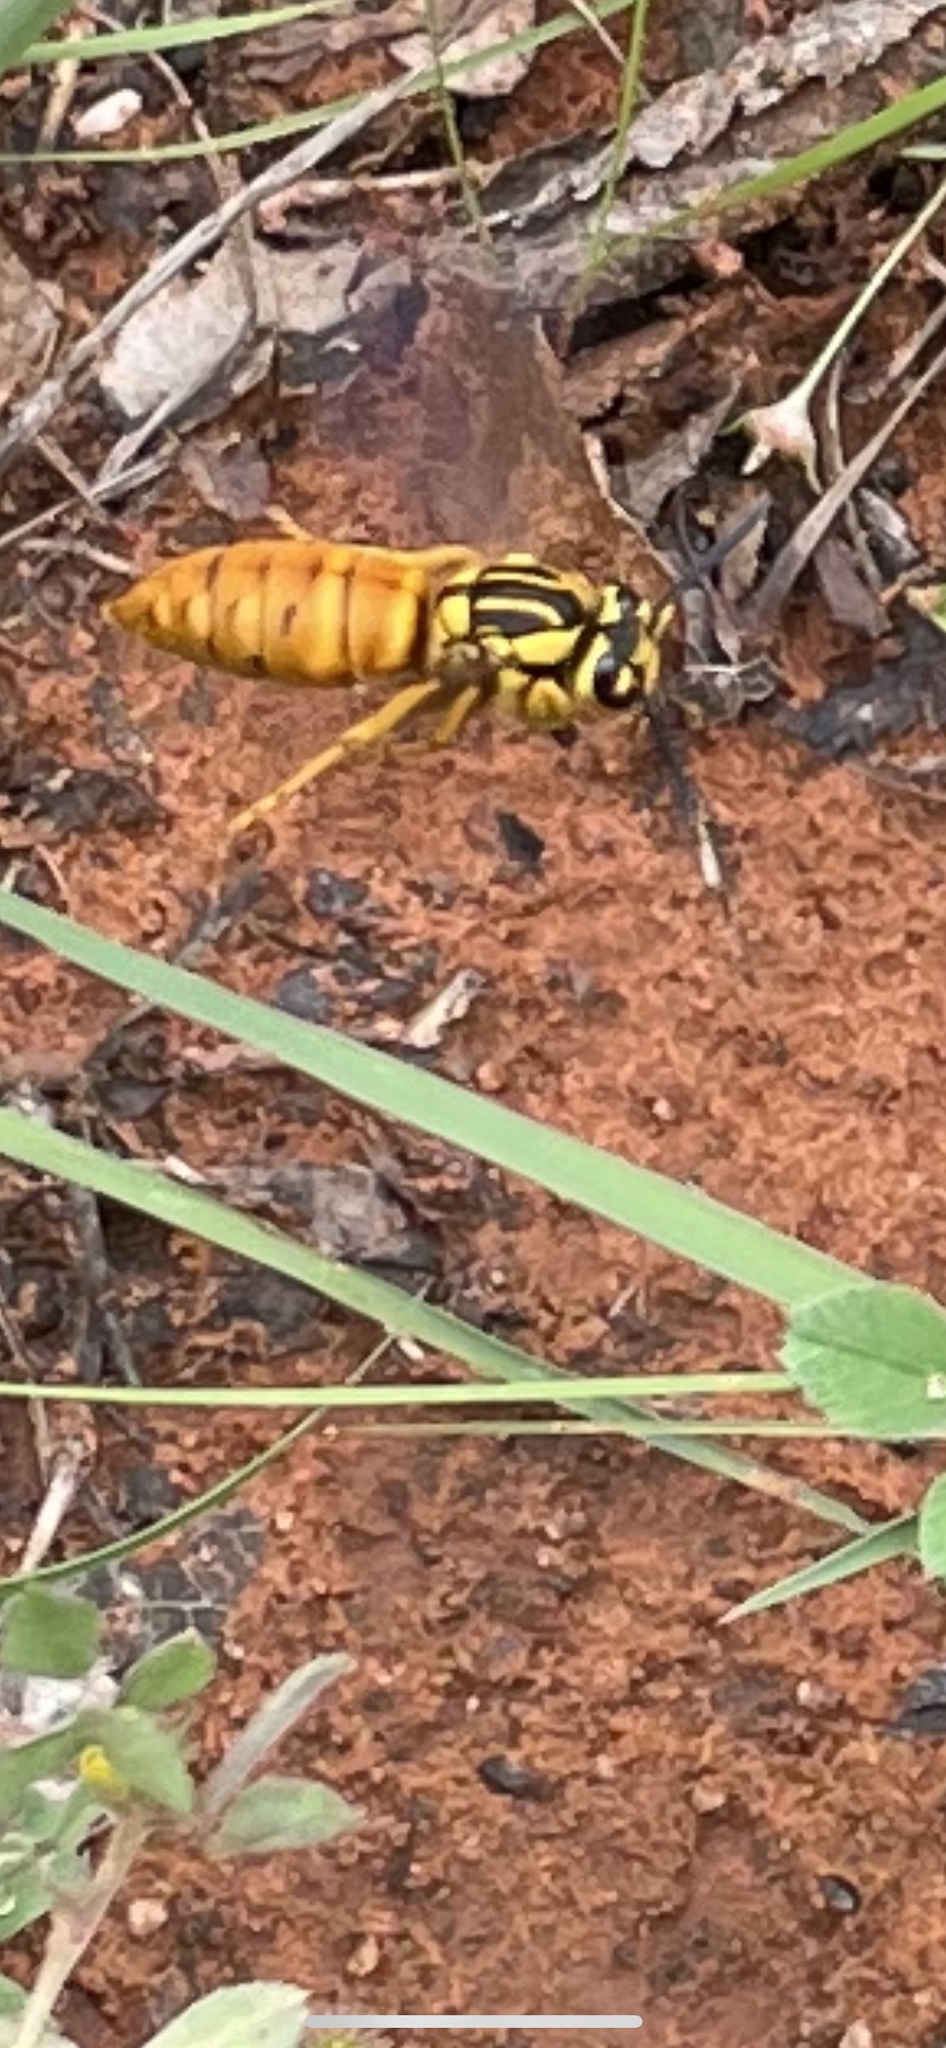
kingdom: Animalia
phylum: Arthropoda
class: Insecta
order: Hymenoptera
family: Vespidae
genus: Vespula
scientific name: Vespula squamosa
